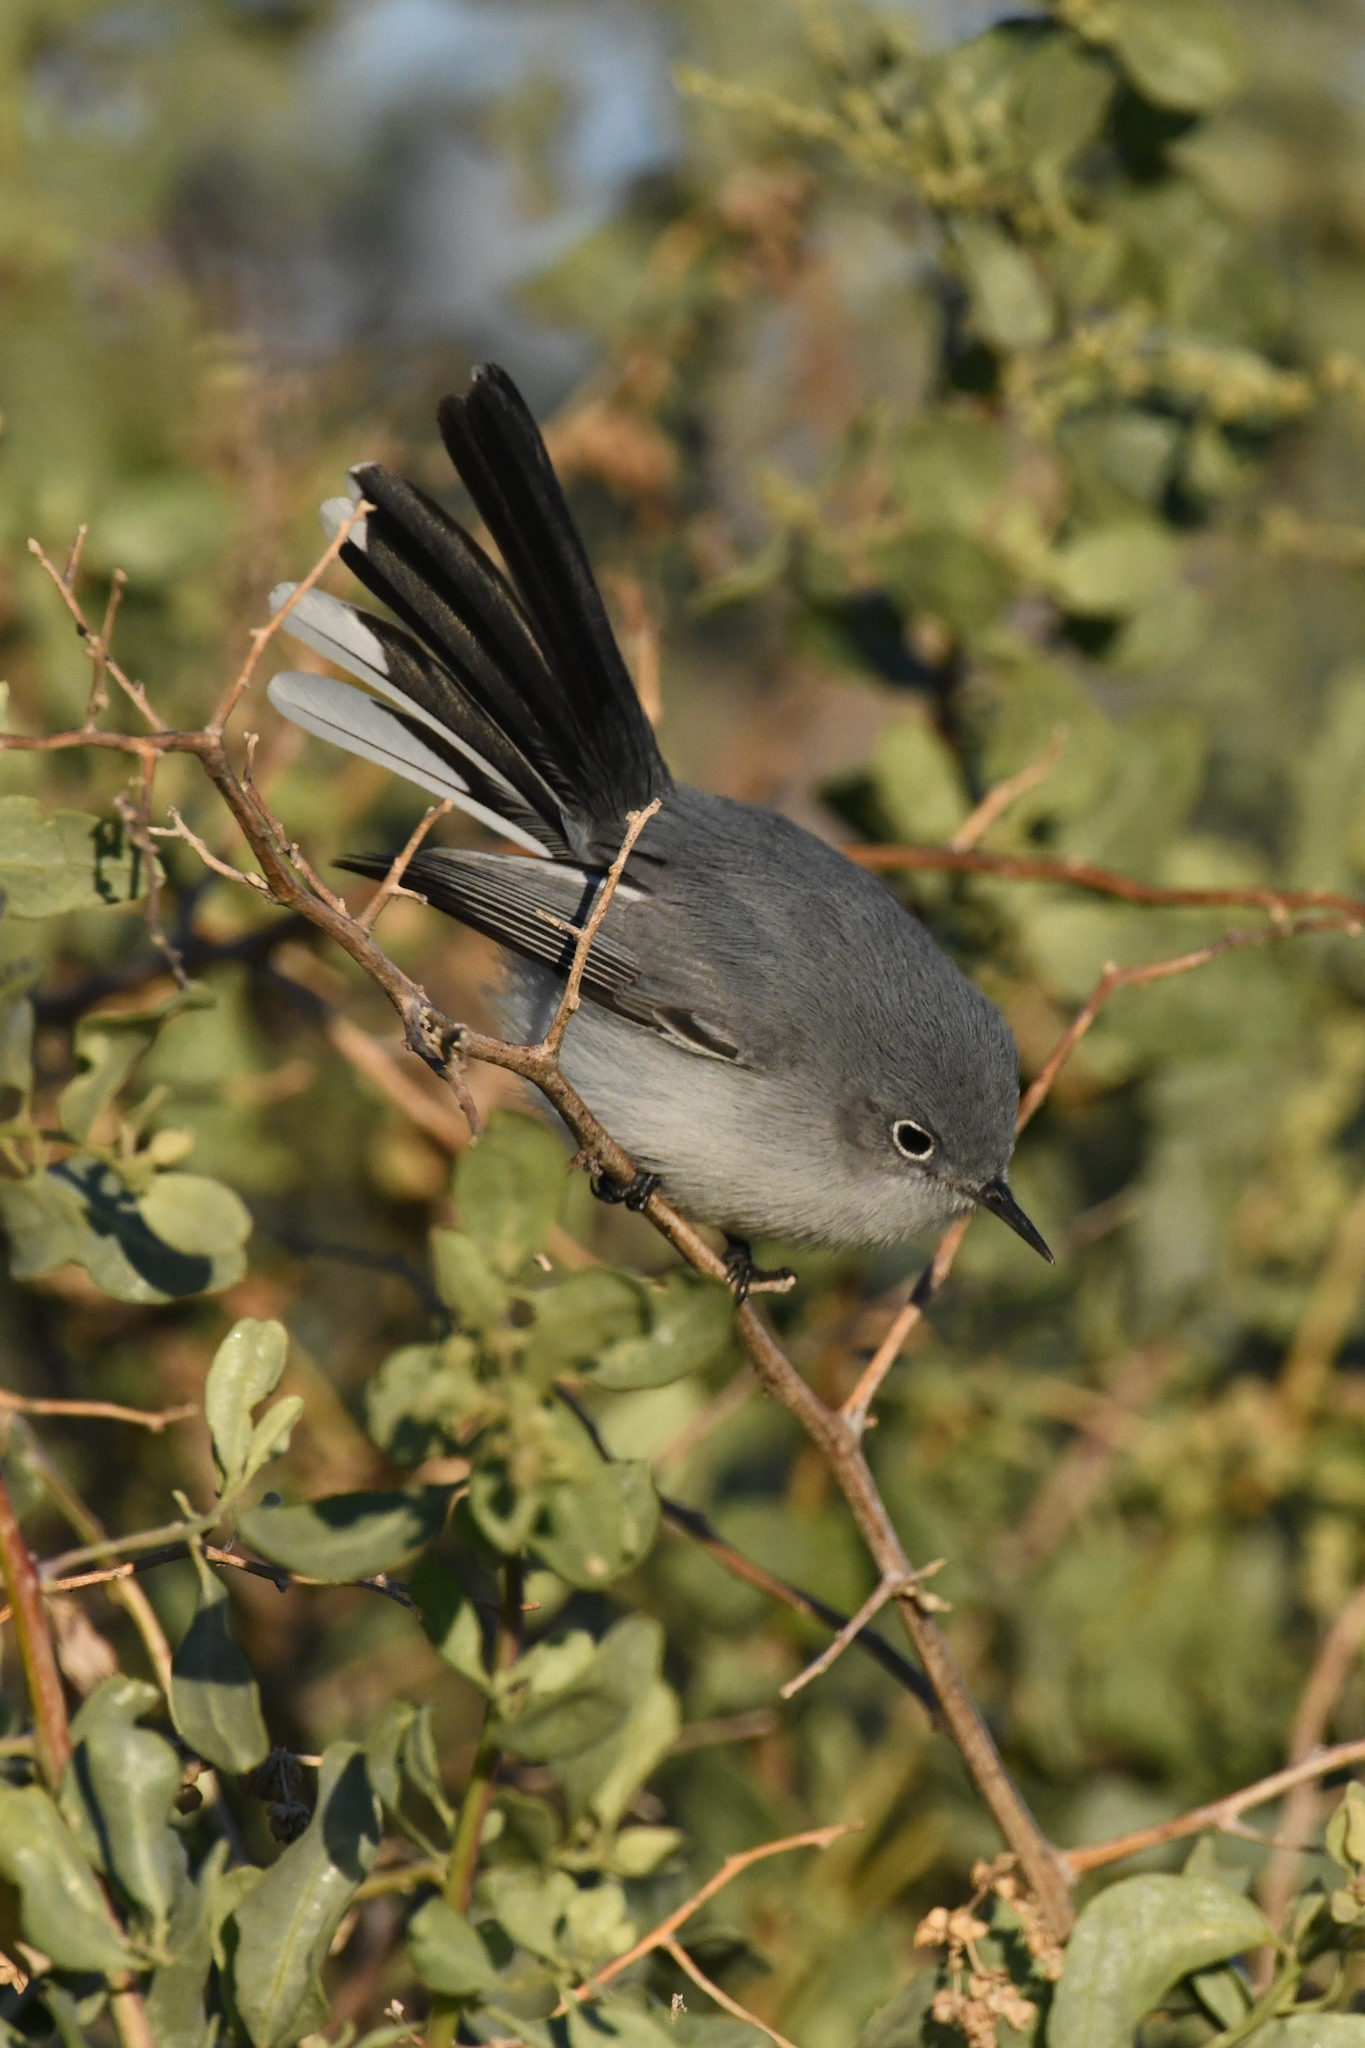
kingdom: Animalia
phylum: Chordata
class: Aves
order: Passeriformes
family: Polioptilidae
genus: Polioptila
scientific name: Polioptila caerulea
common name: Blue-gray gnatcatcher
